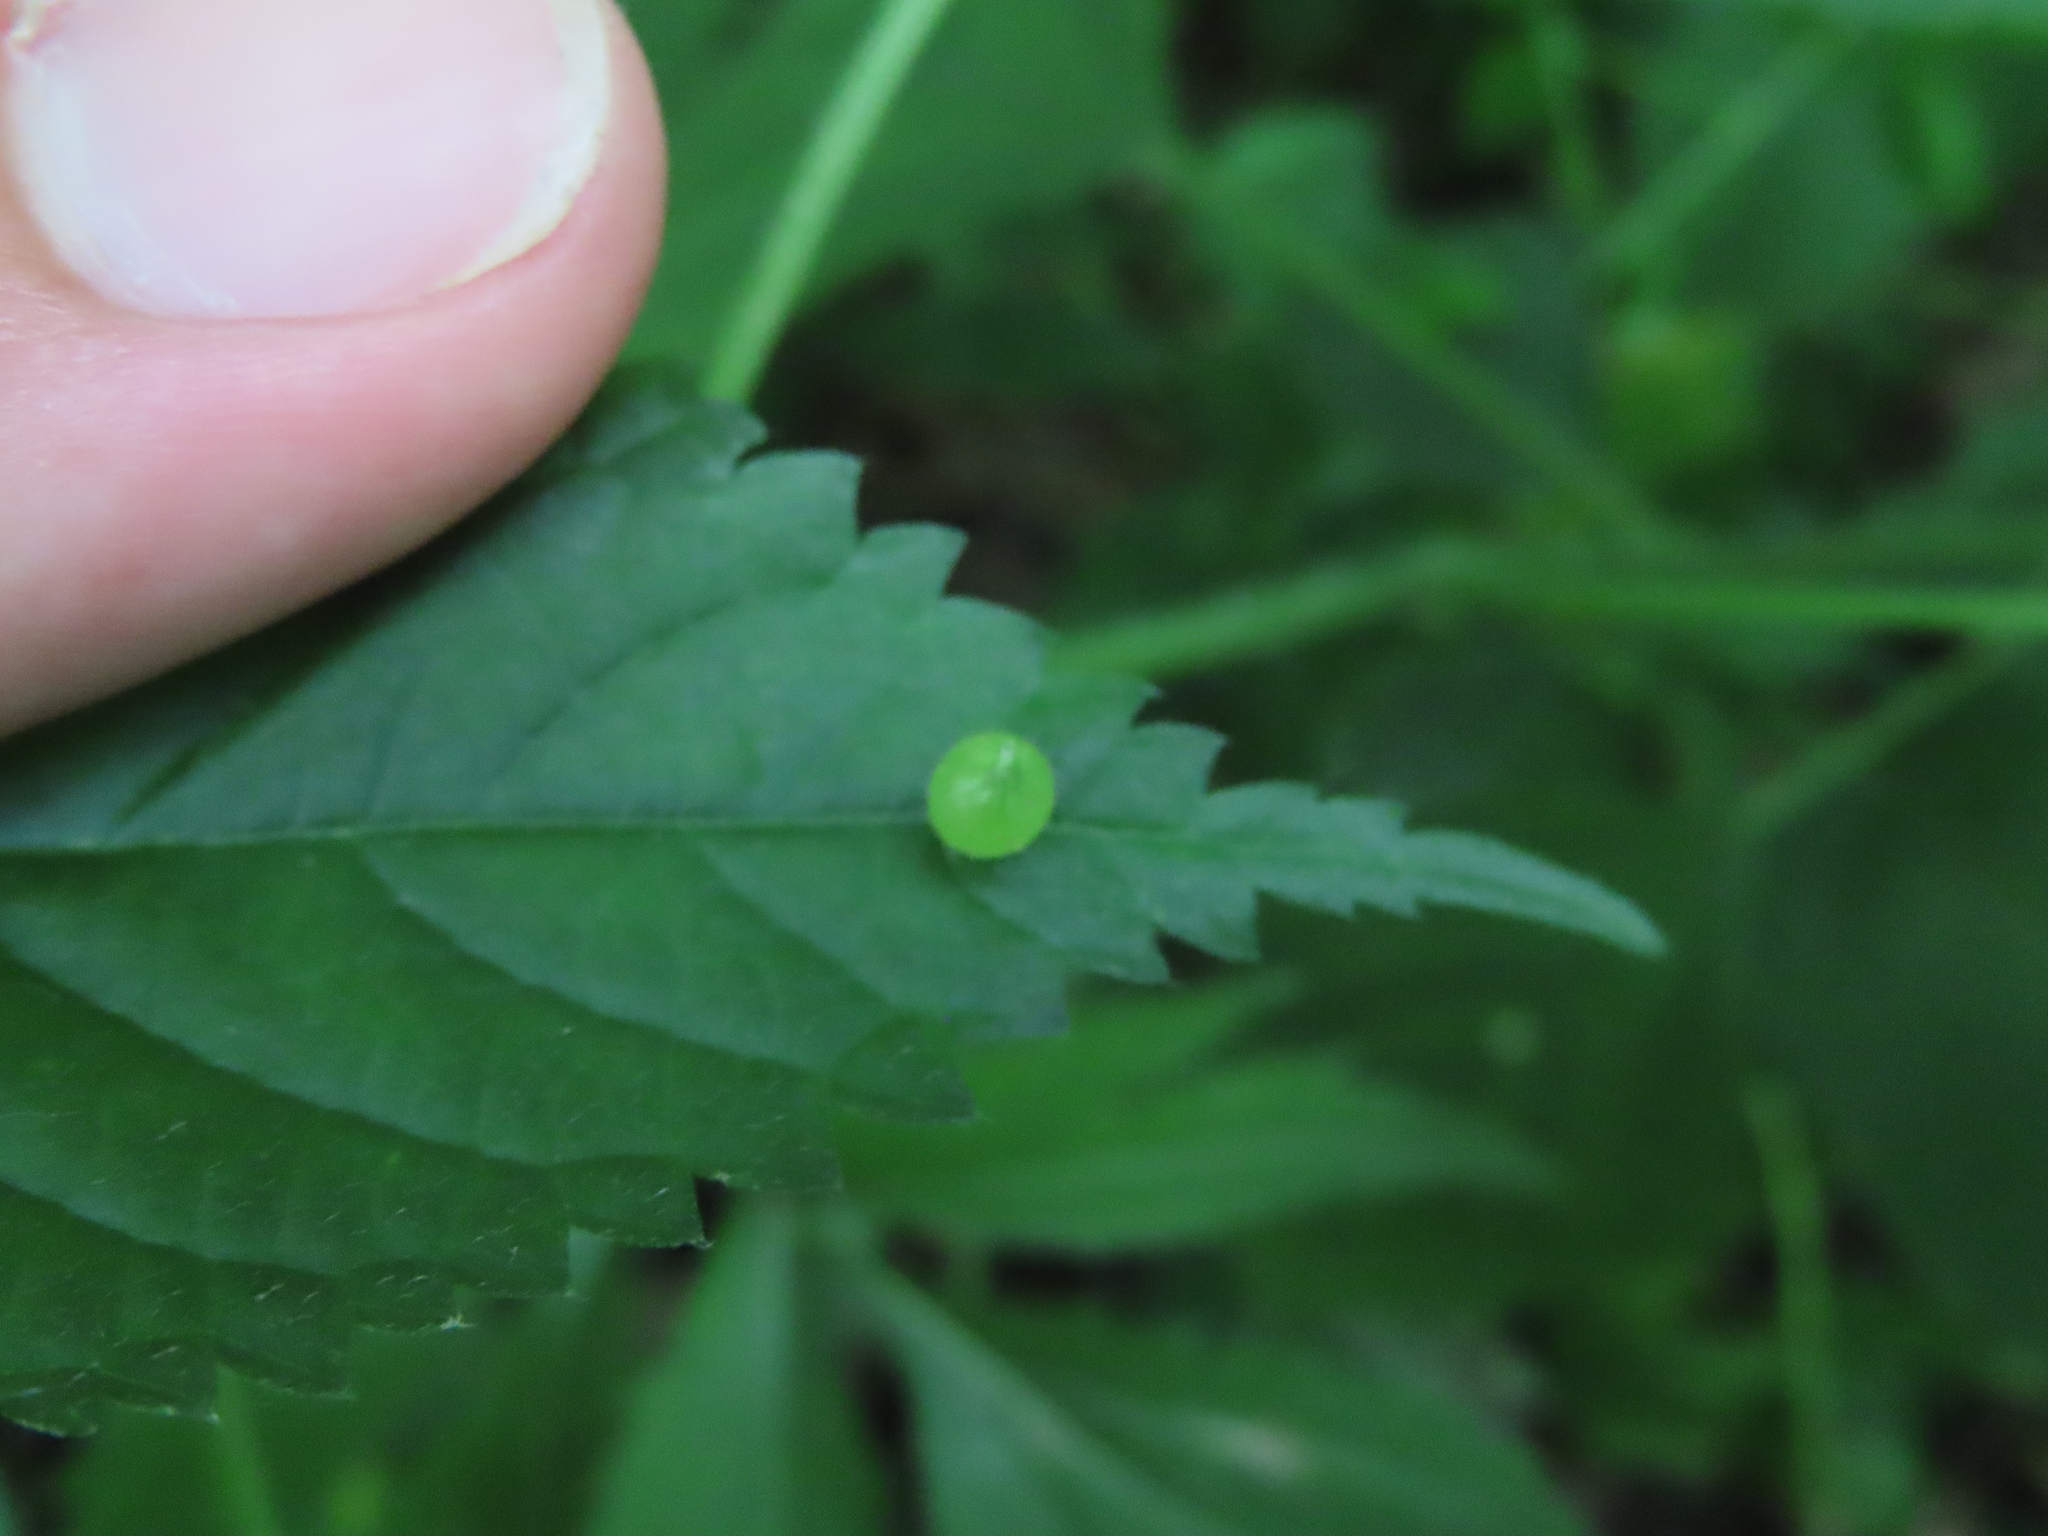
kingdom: Animalia
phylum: Arthropoda
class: Insecta
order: Diptera
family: Cecidomyiidae
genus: Dasineura
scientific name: Dasineura investita
